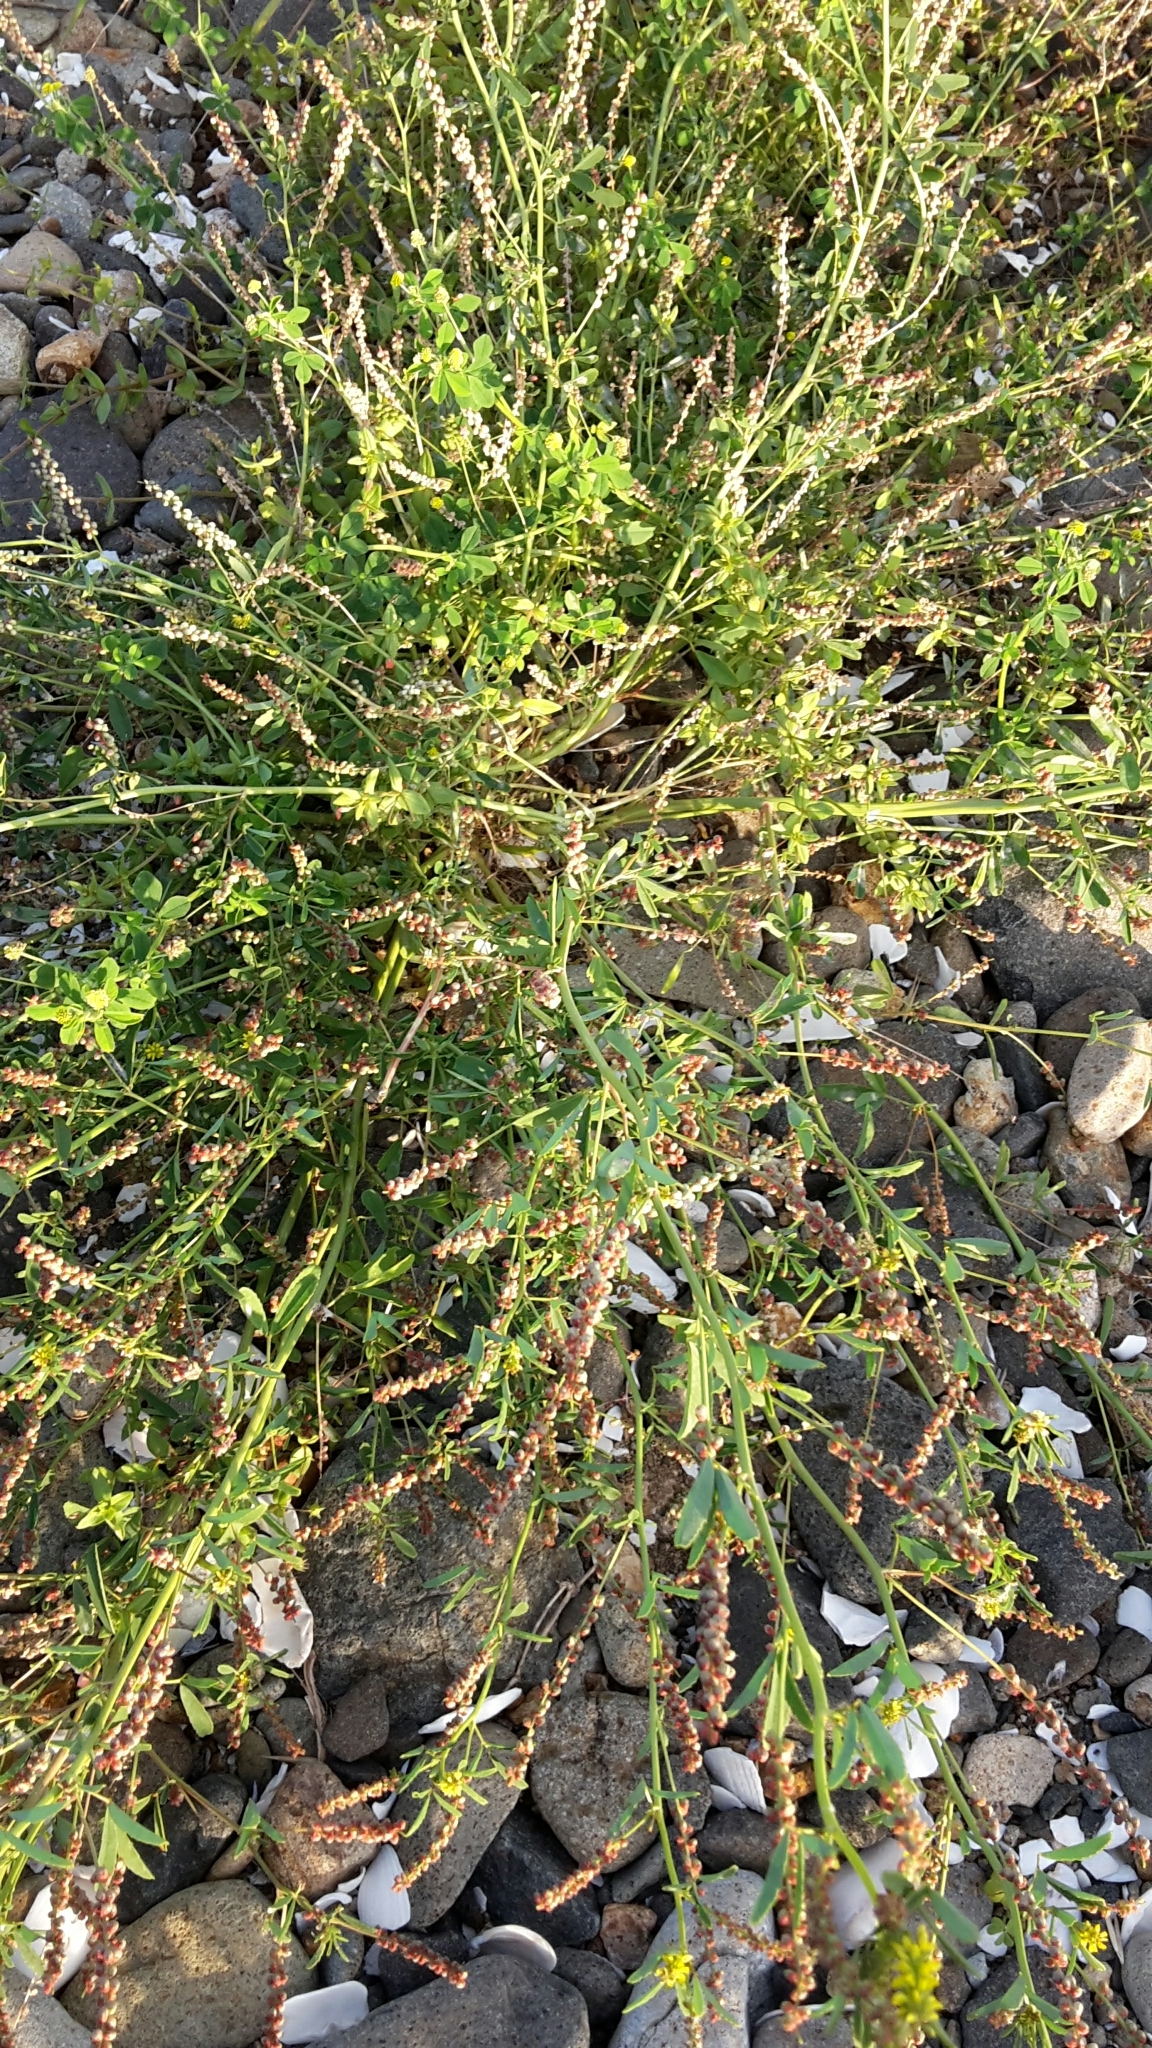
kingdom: Plantae
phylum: Tracheophyta
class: Magnoliopsida
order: Fabales
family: Fabaceae
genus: Melilotus
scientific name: Melilotus indicus
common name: Small melilot
